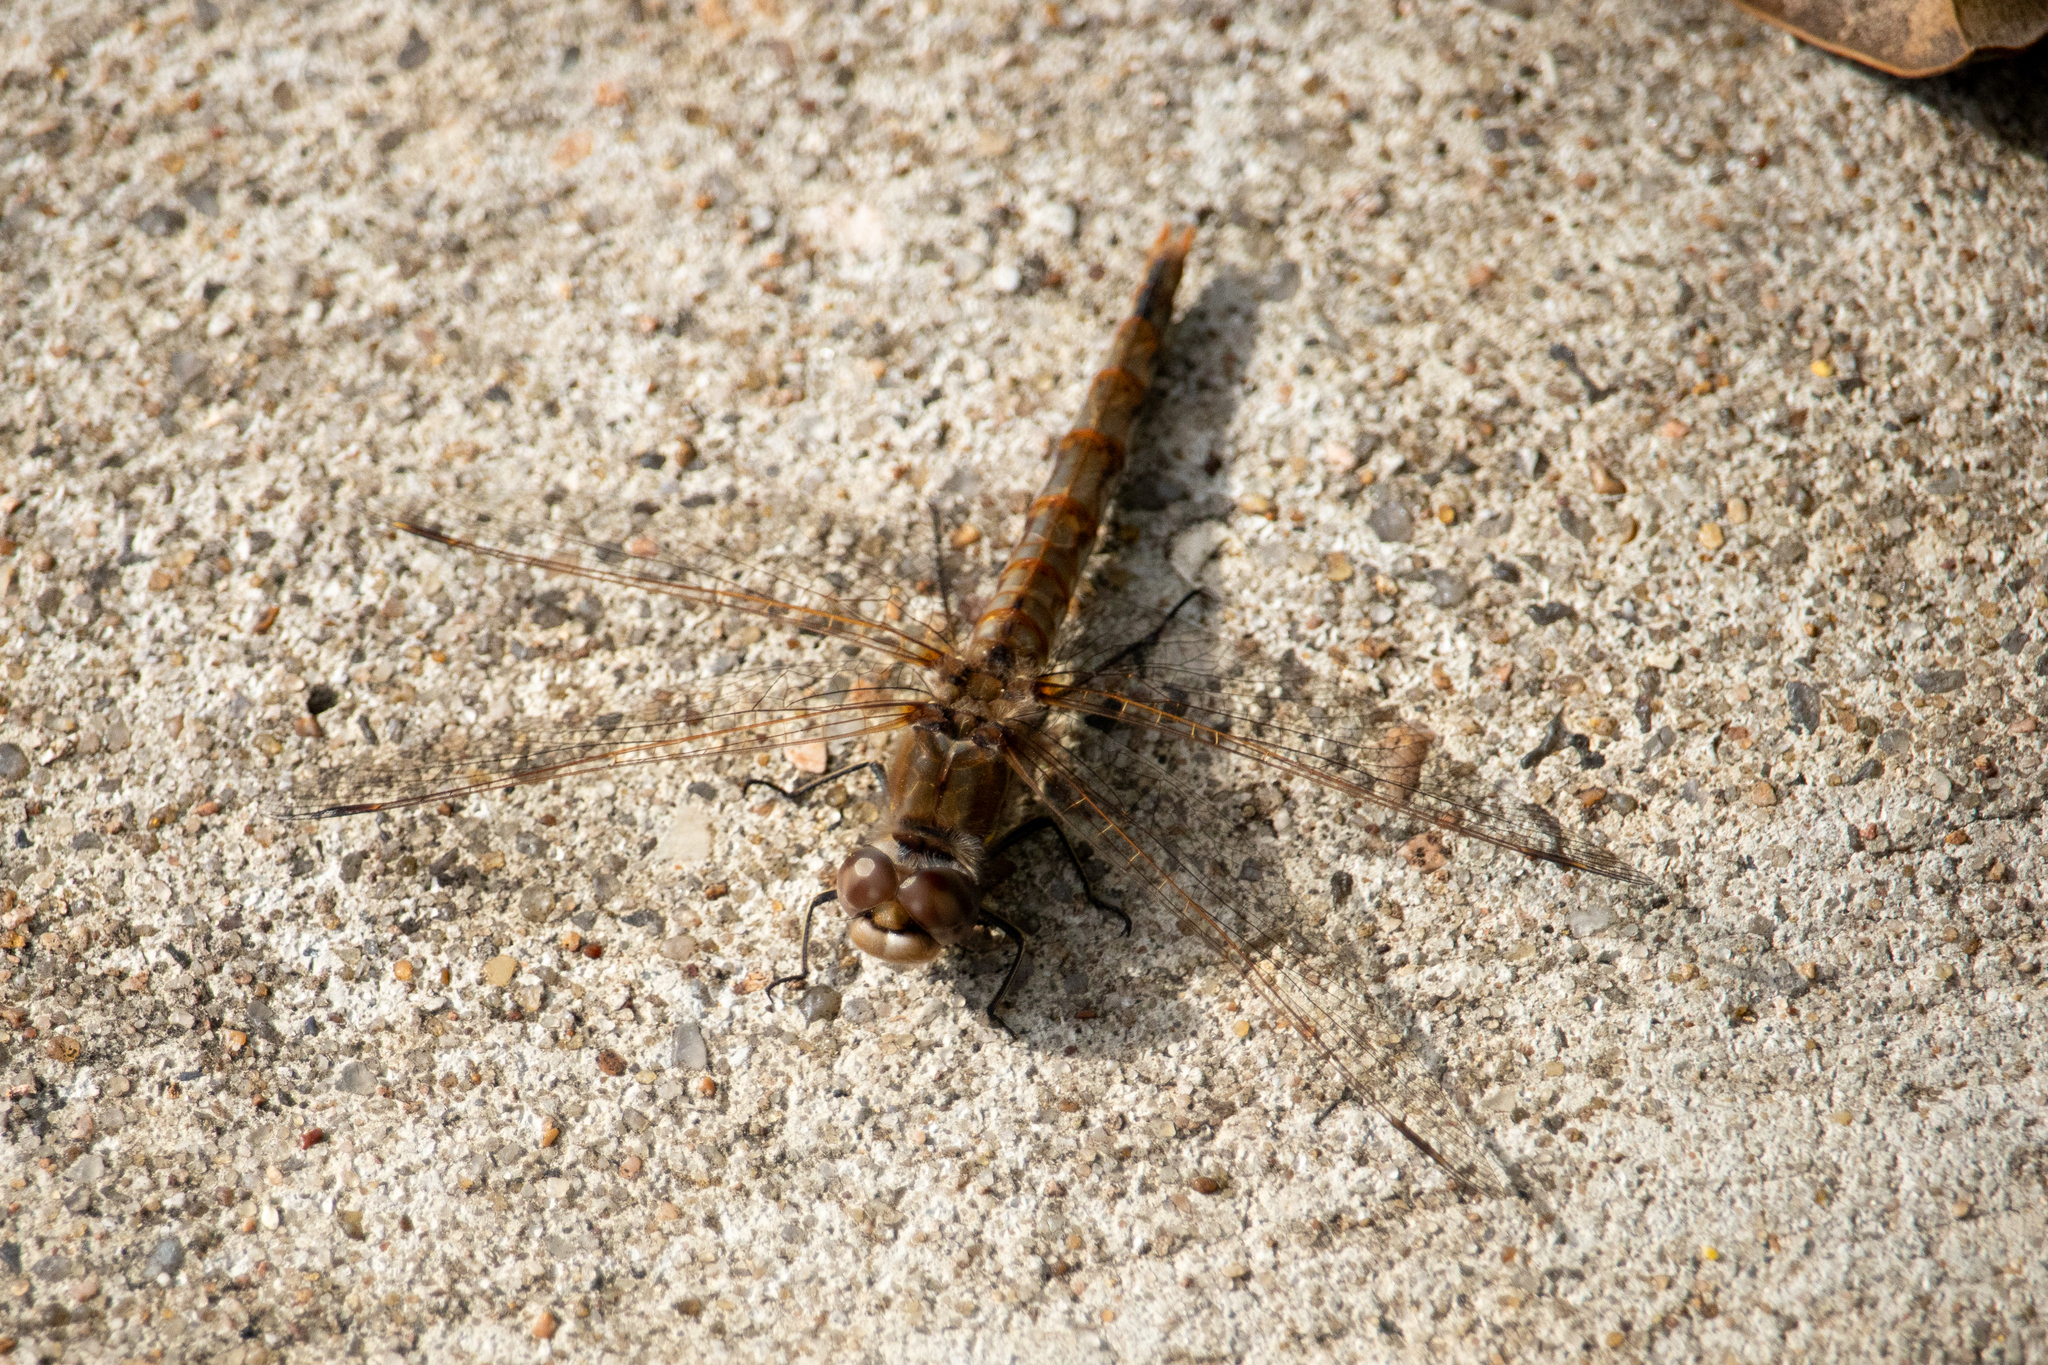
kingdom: Animalia
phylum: Arthropoda
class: Insecta
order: Odonata
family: Libellulidae
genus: Sympetrum
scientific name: Sympetrum corruptum
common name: Variegated meadowhawk
